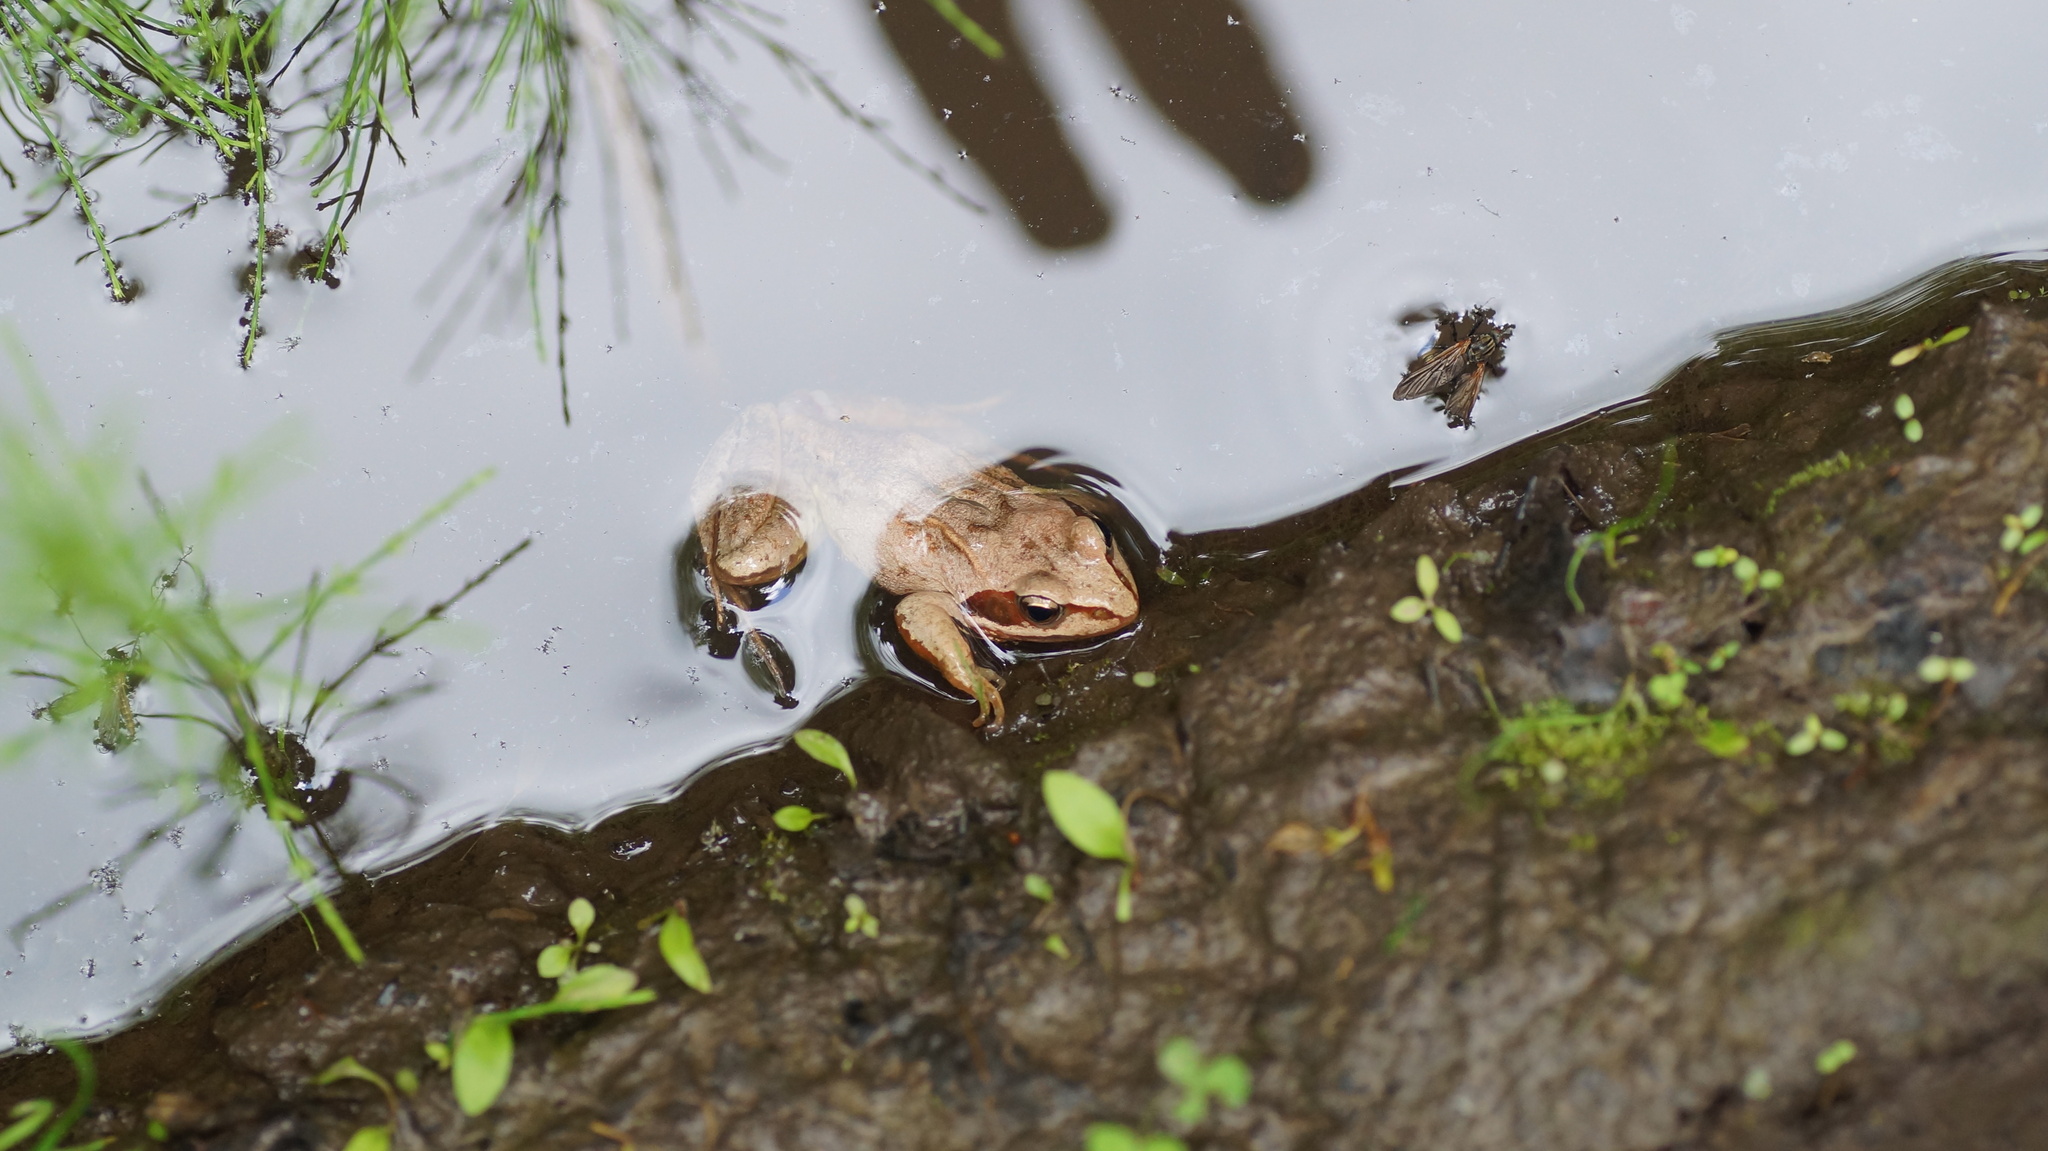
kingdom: Animalia
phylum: Chordata
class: Amphibia
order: Anura
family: Ranidae
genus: Rana
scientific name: Rana arvalis
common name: Moor frog
